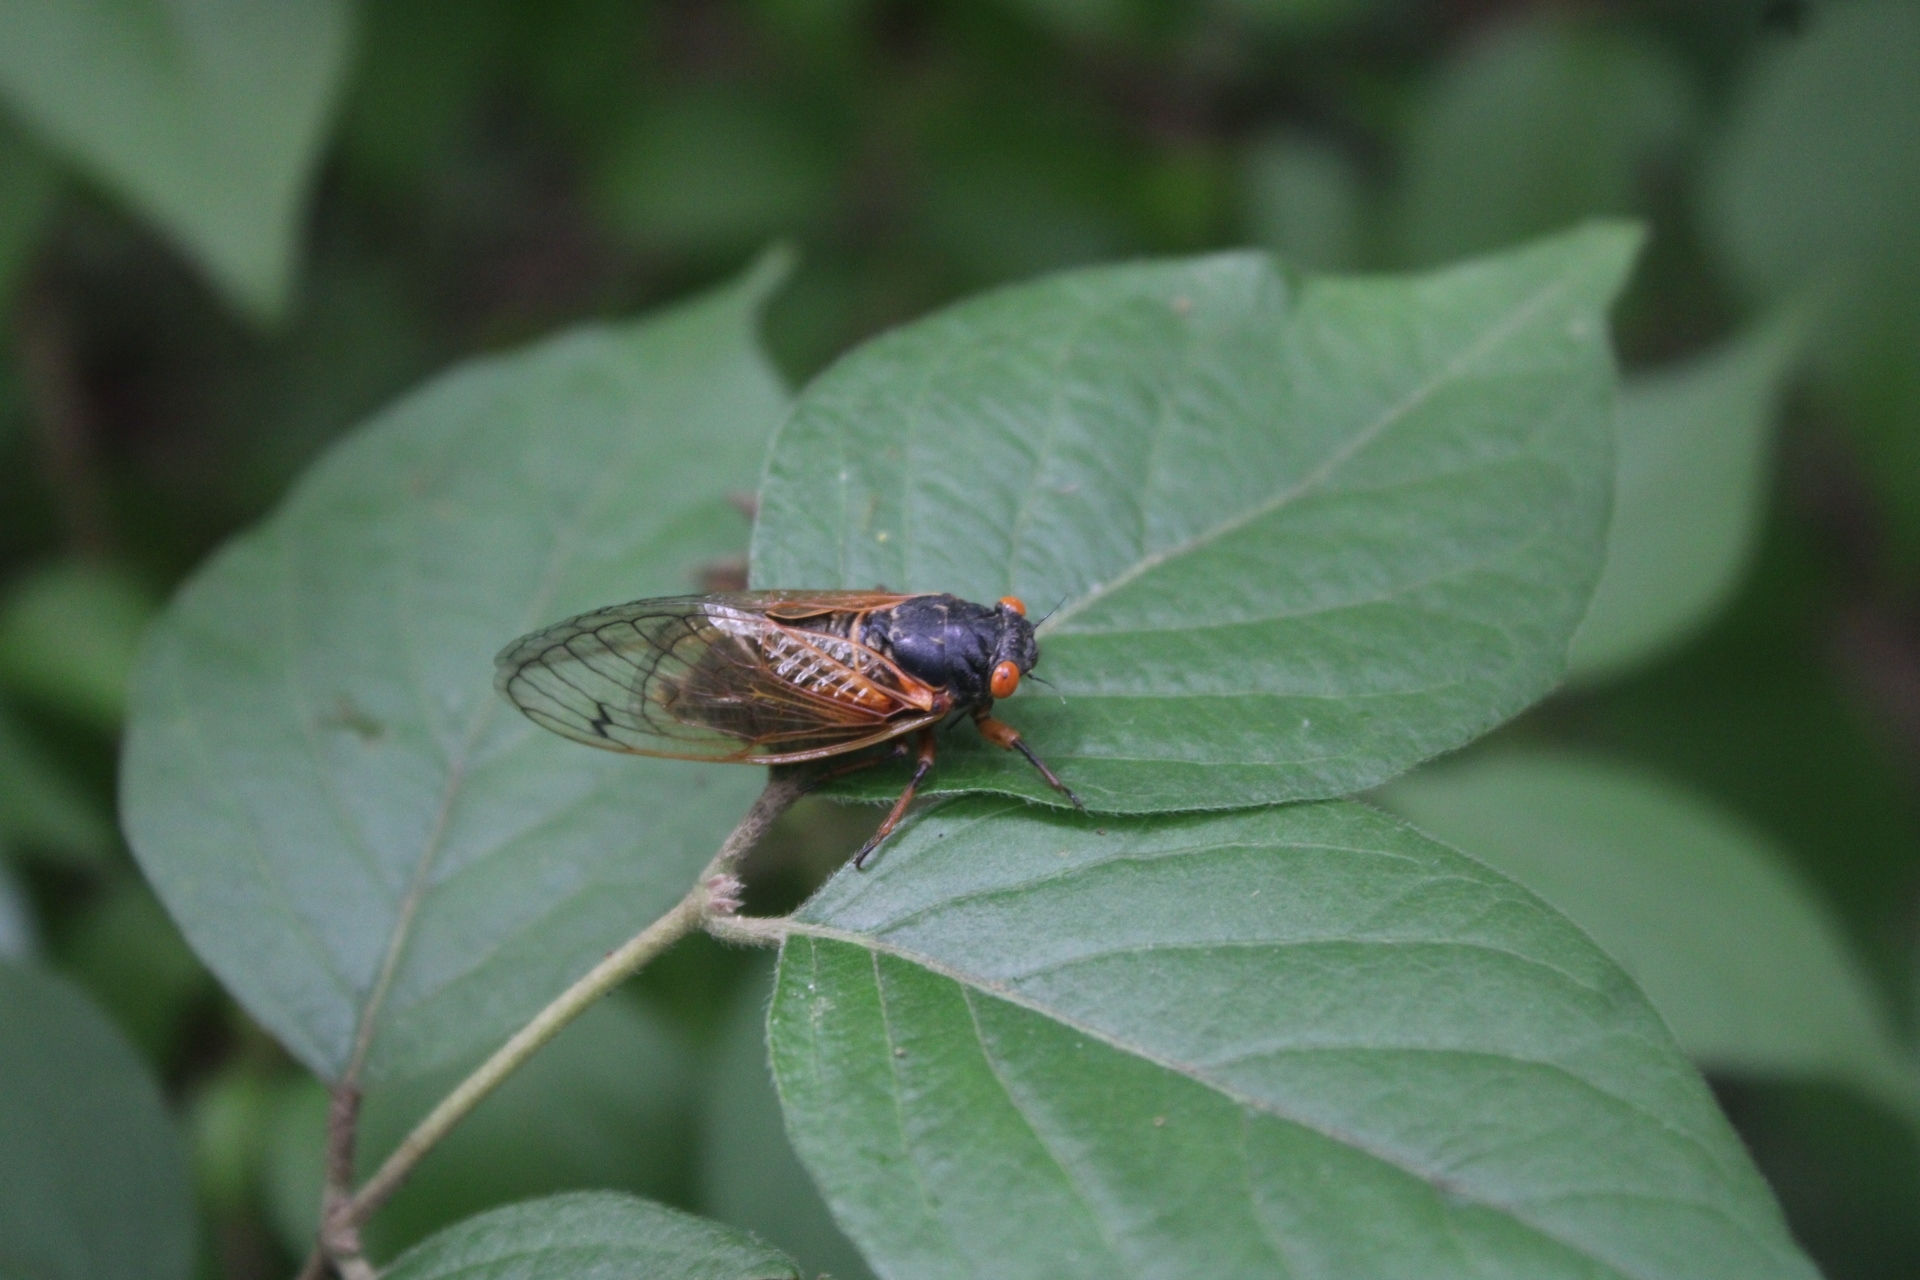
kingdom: Animalia
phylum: Arthropoda
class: Insecta
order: Hemiptera
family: Cicadidae
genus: Magicicada
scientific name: Magicicada
